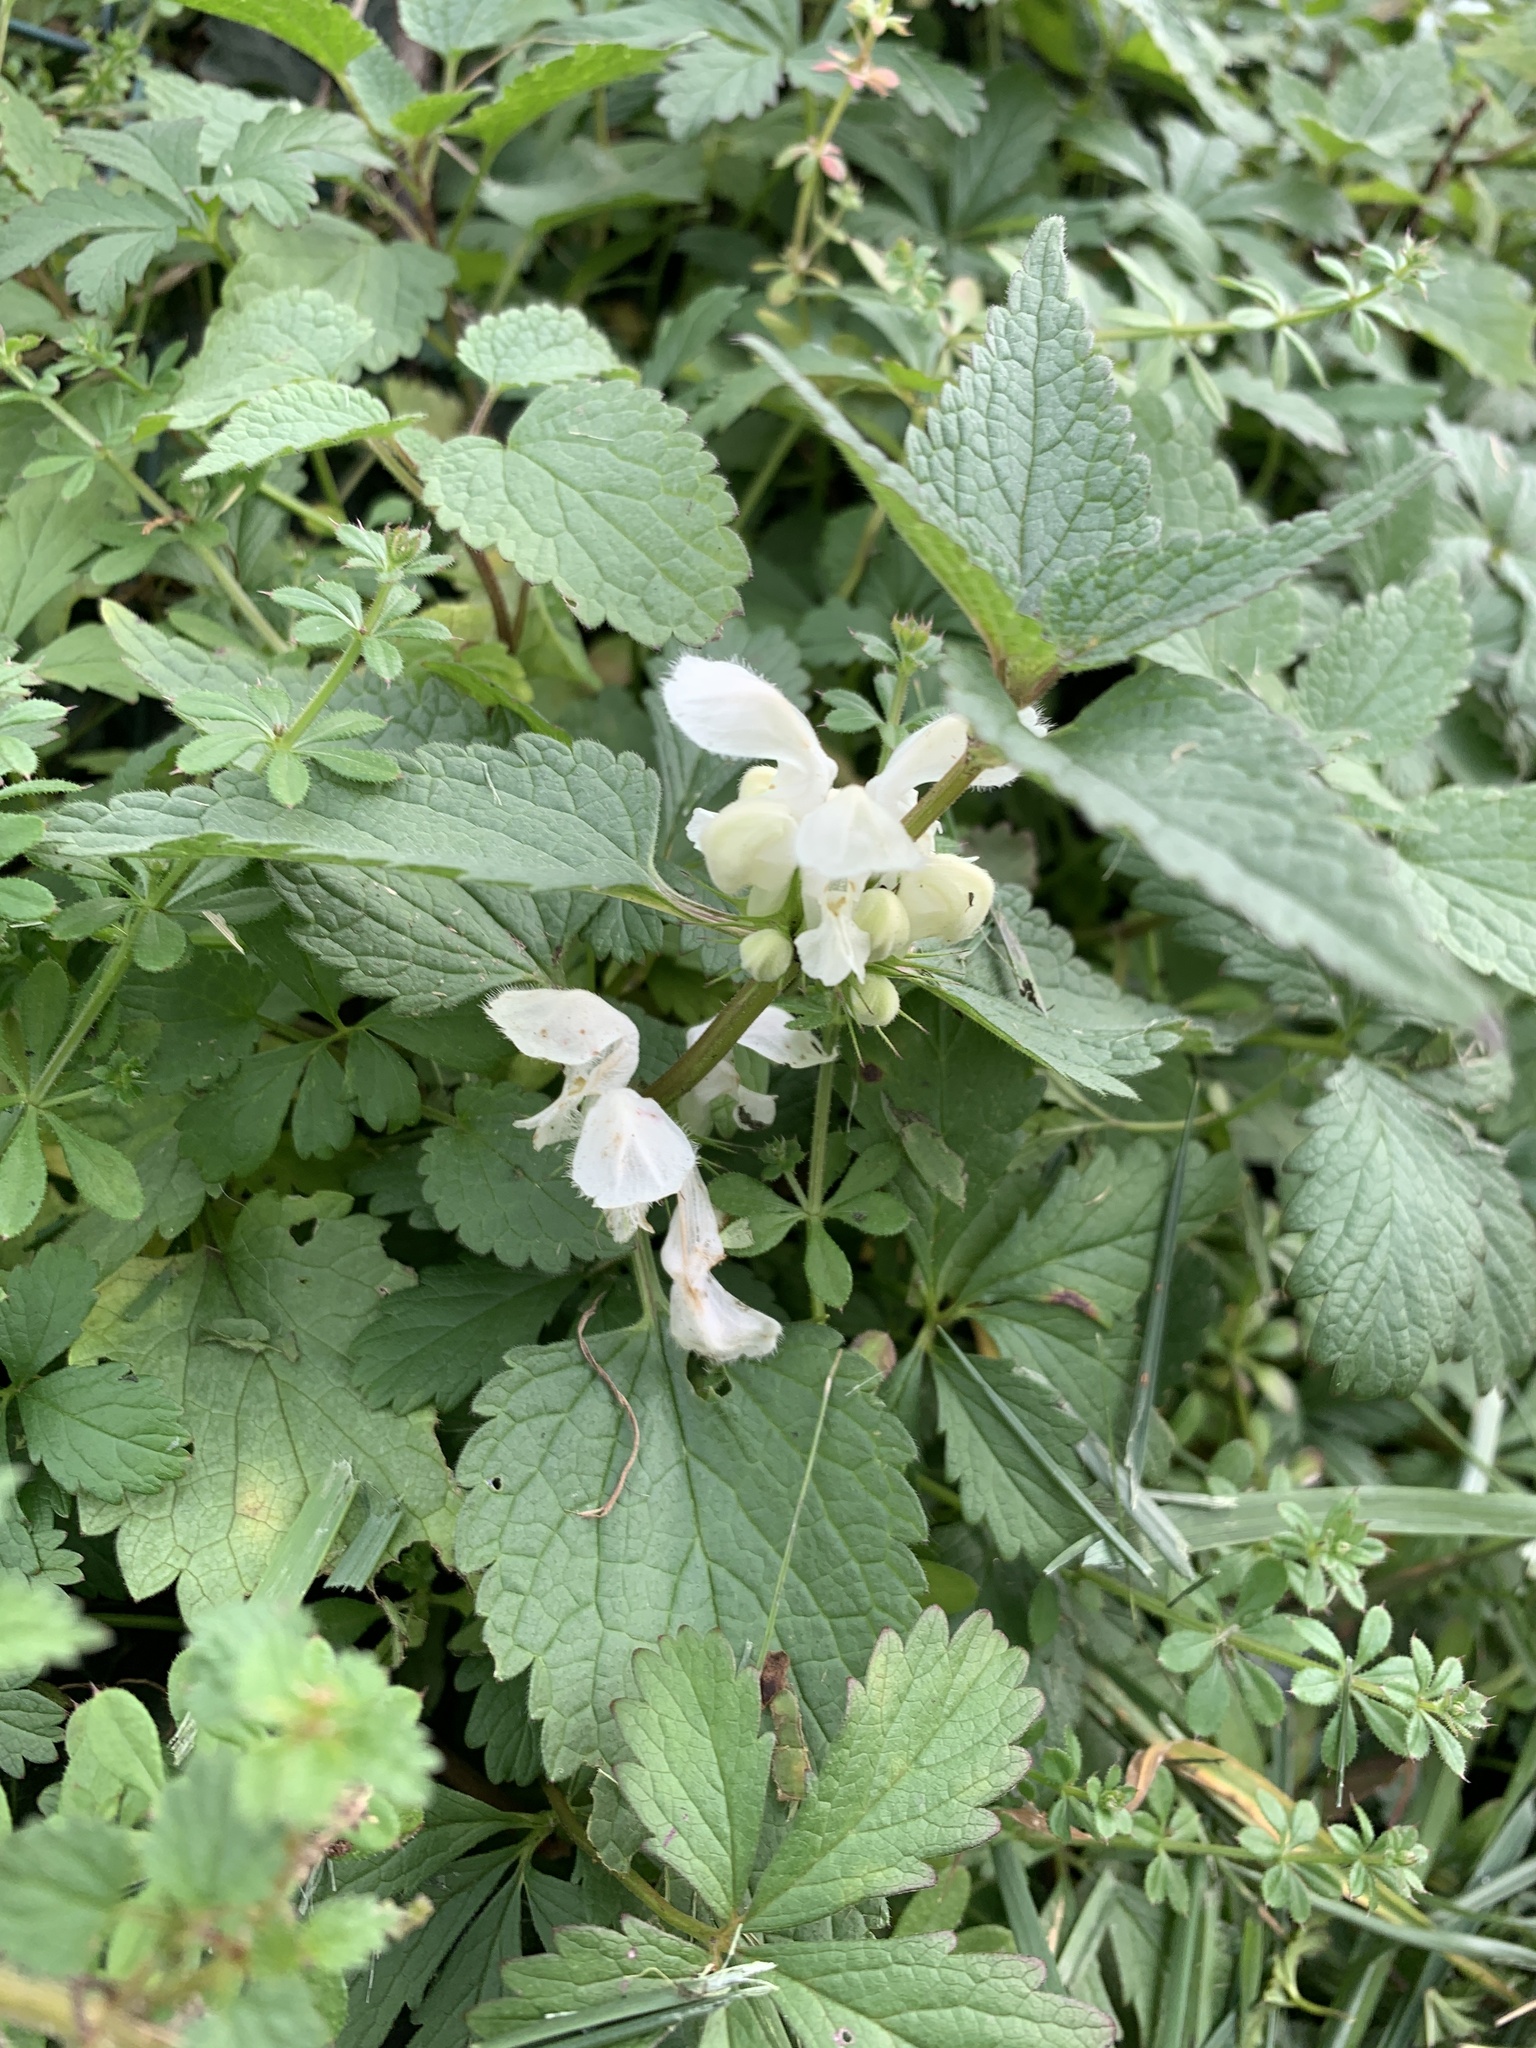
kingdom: Plantae
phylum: Tracheophyta
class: Magnoliopsida
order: Lamiales
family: Lamiaceae
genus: Lamium
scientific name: Lamium album
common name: White dead-nettle
